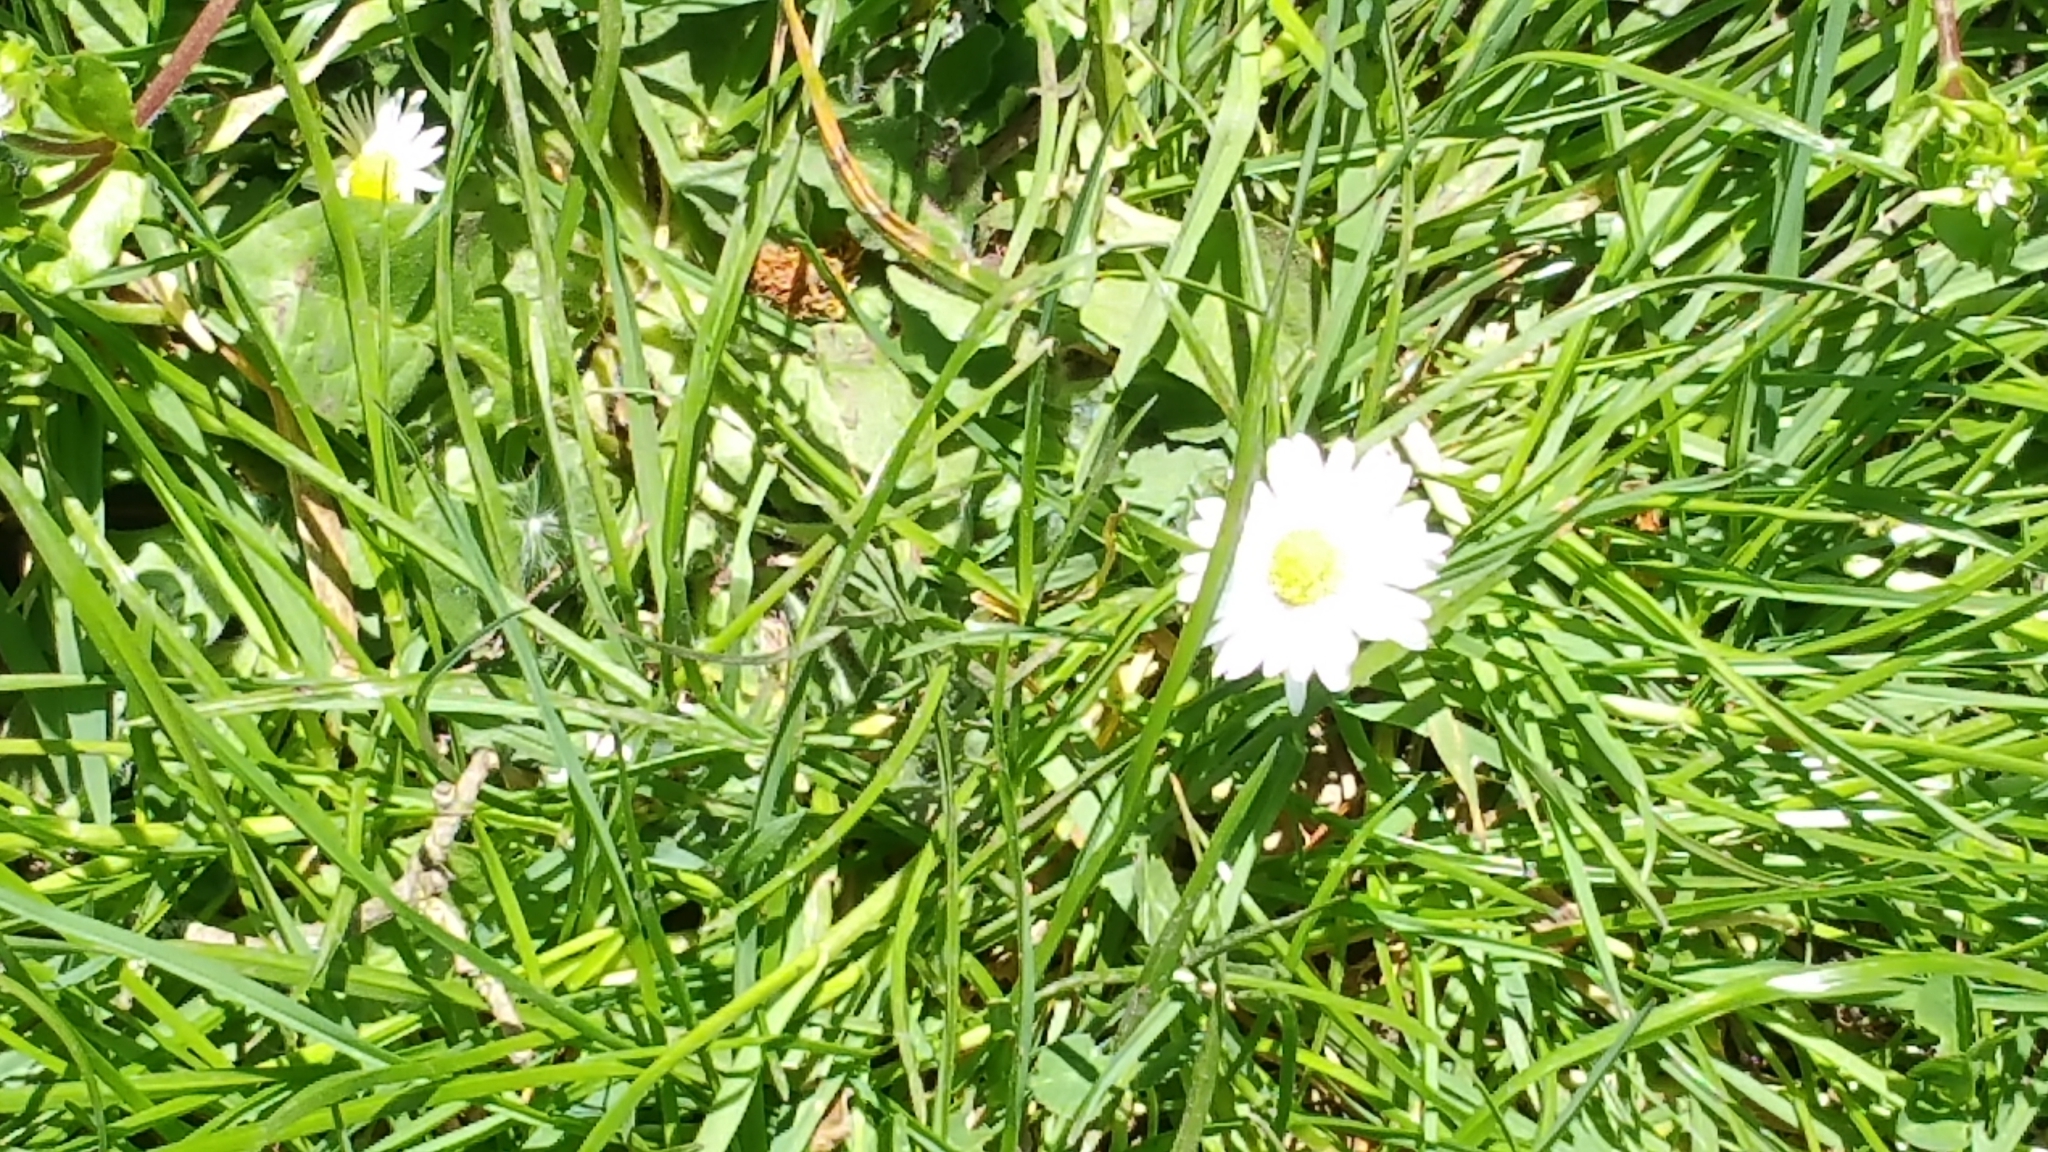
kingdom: Plantae
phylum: Tracheophyta
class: Magnoliopsida
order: Asterales
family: Asteraceae
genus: Bellis
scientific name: Bellis perennis
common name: Lawndaisy
